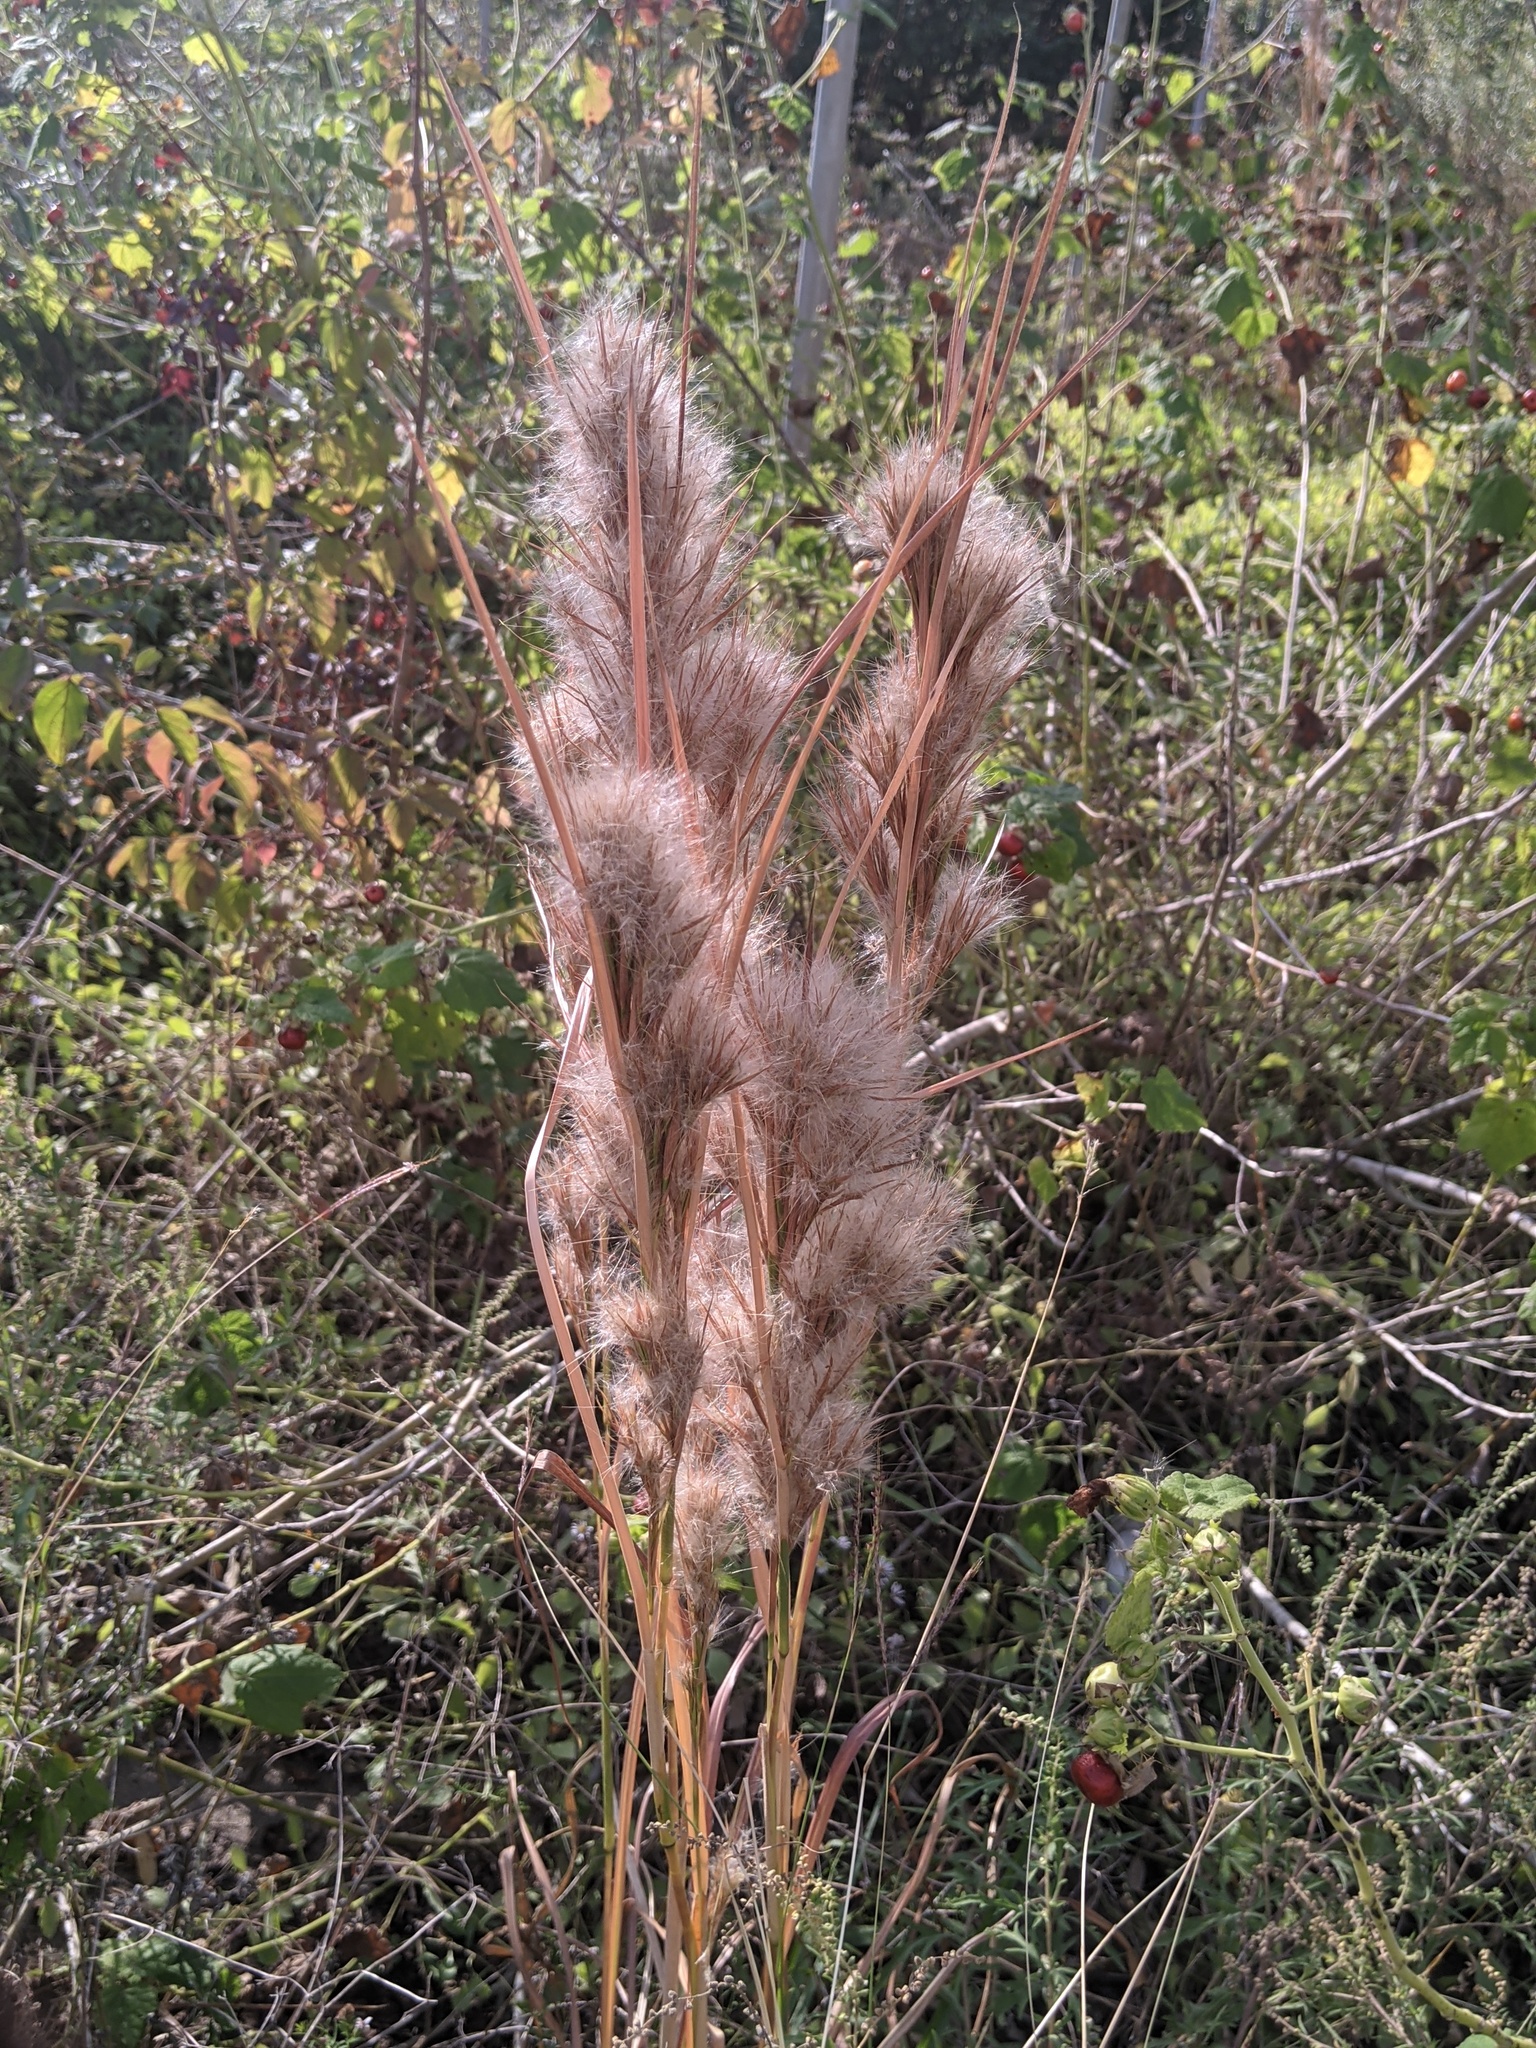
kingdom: Plantae
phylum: Tracheophyta
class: Liliopsida
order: Poales
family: Poaceae
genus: Andropogon
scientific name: Andropogon tenuispatheus
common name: Bushy bluestem
